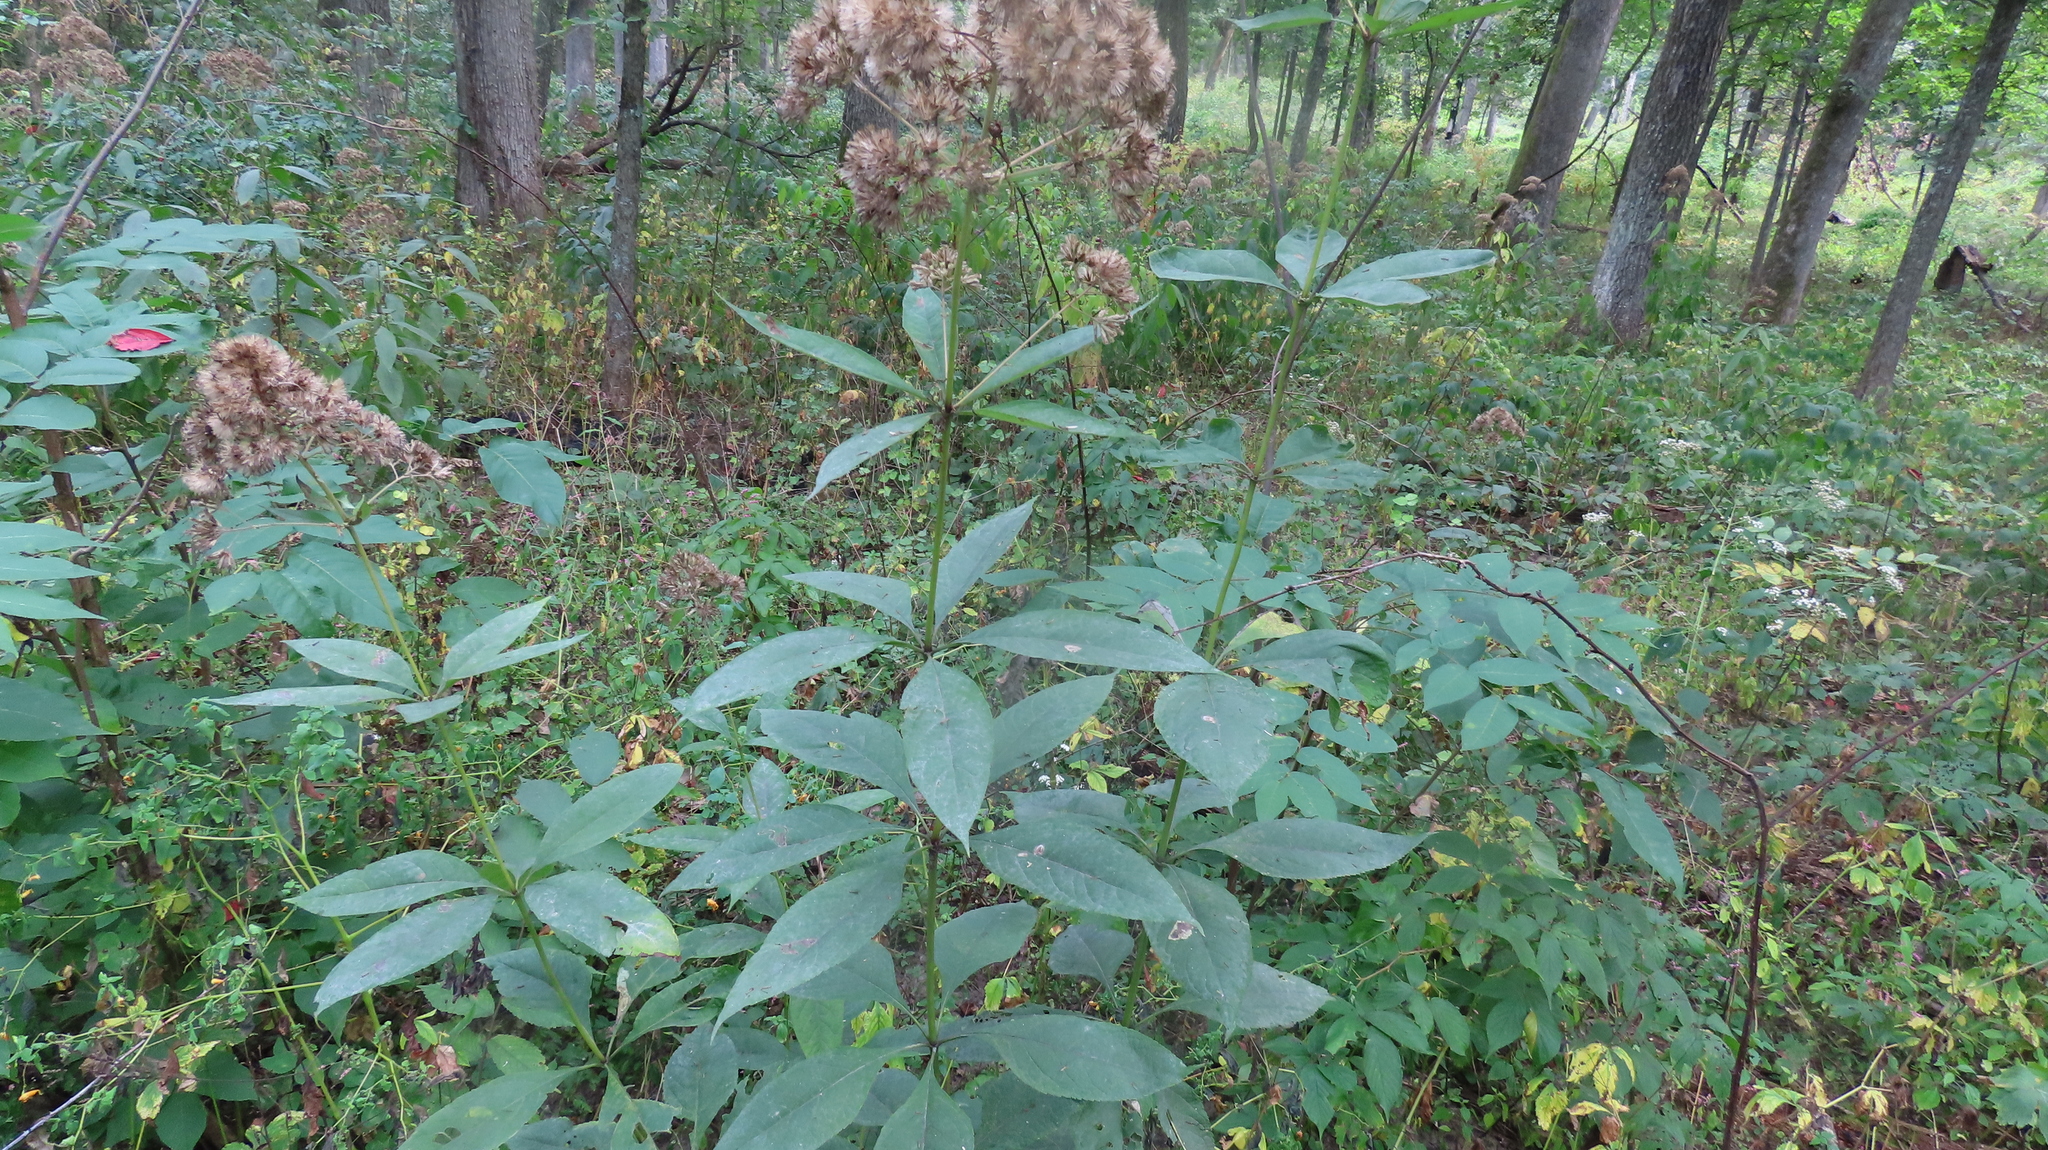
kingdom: Plantae
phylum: Tracheophyta
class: Magnoliopsida
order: Asterales
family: Asteraceae
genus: Eutrochium
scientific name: Eutrochium purpureum
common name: Gravelroot
